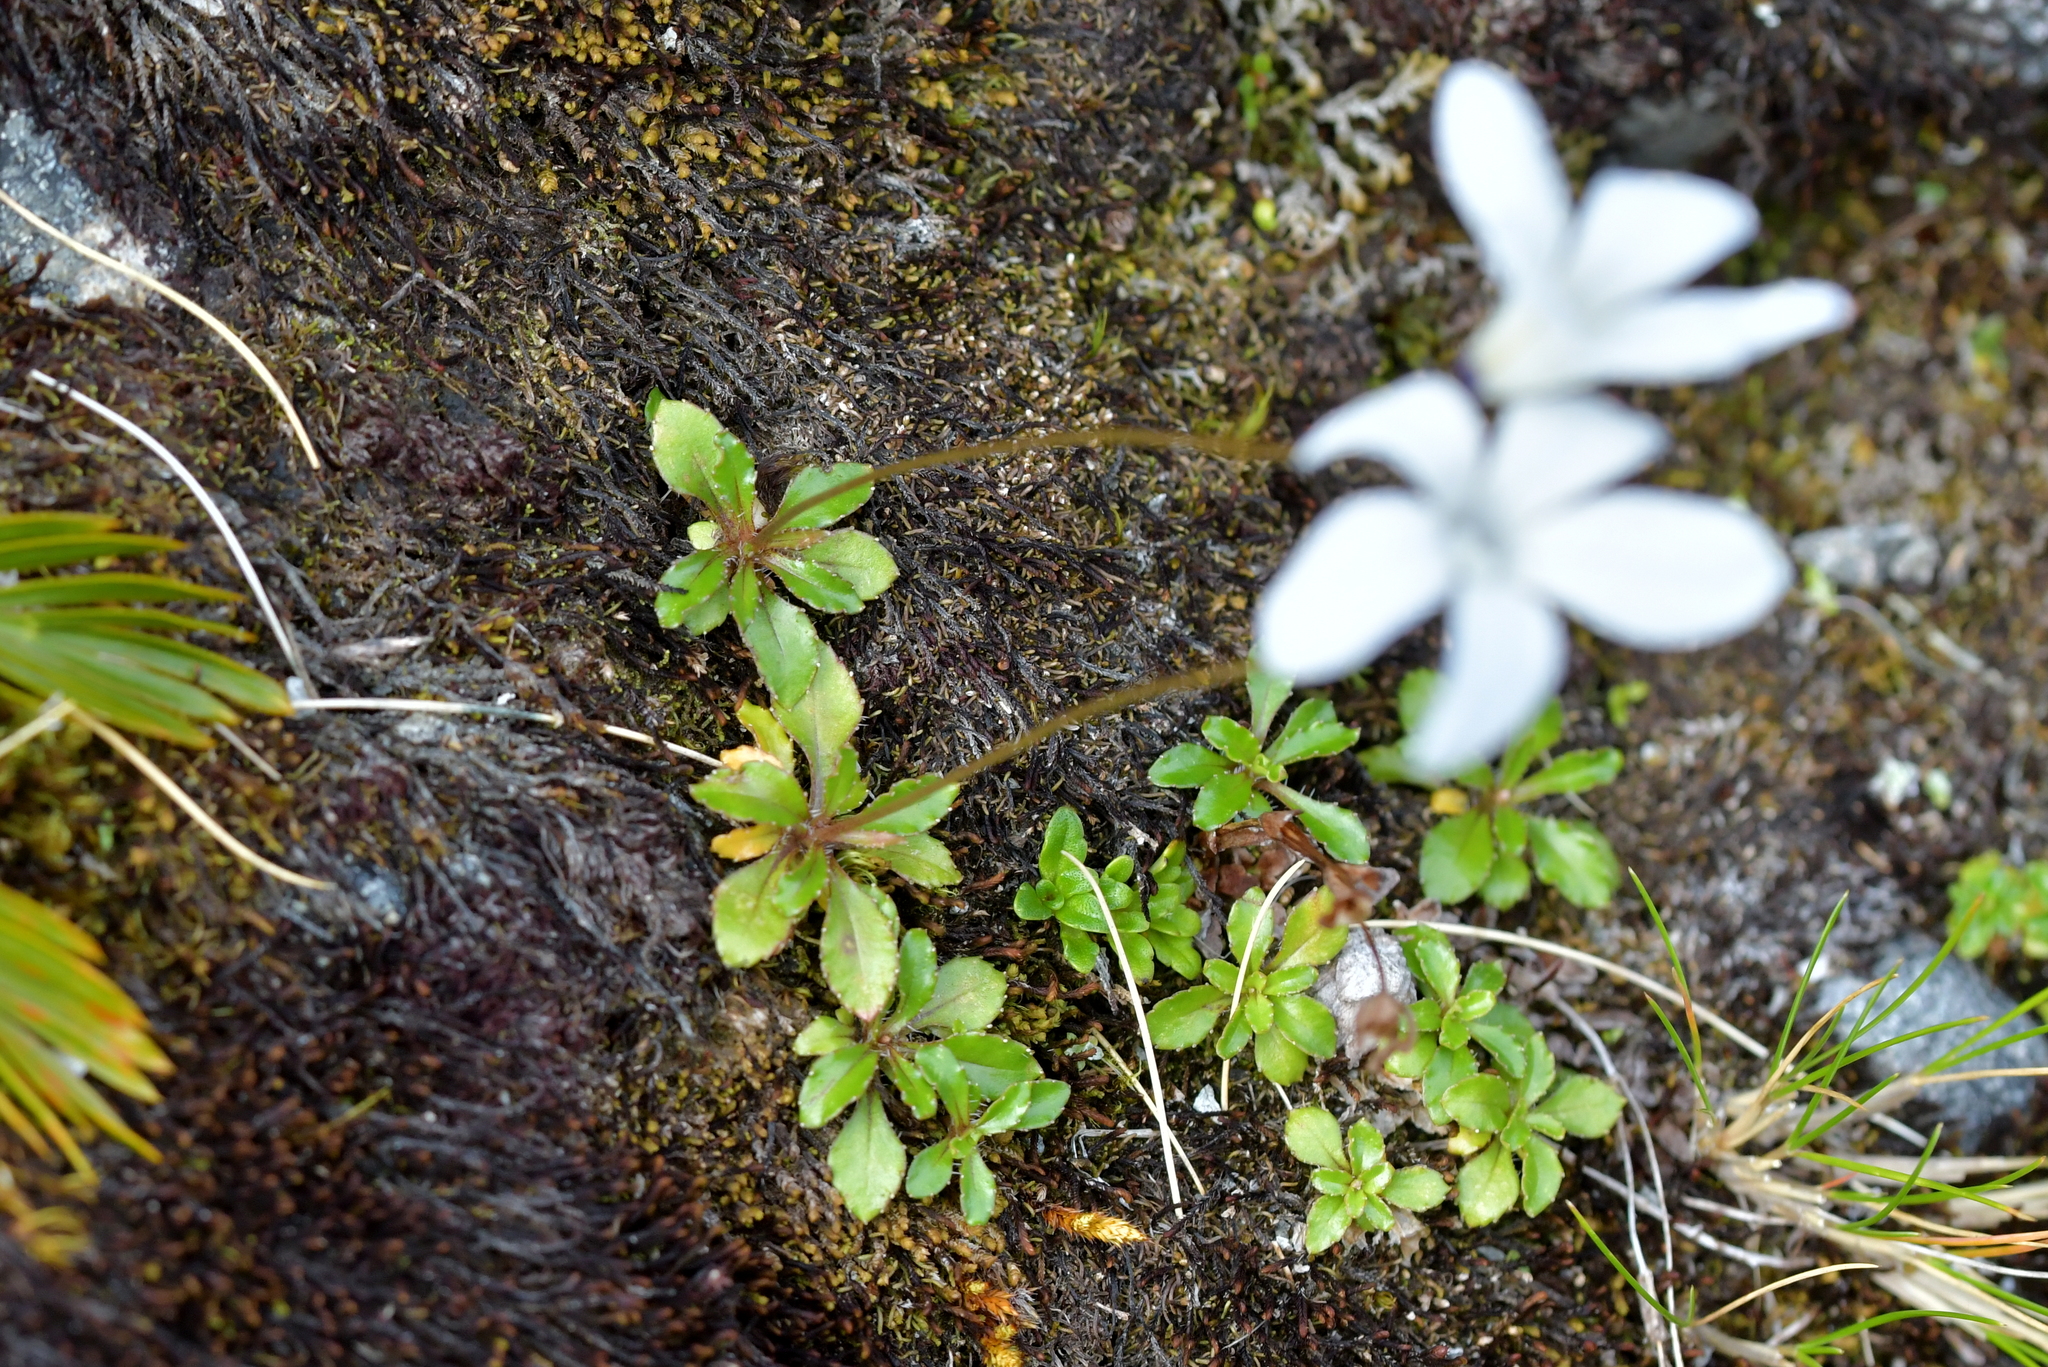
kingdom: Plantae
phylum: Tracheophyta
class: Magnoliopsida
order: Asterales
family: Campanulaceae
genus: Wahlenbergia
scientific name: Wahlenbergia albomarginata
